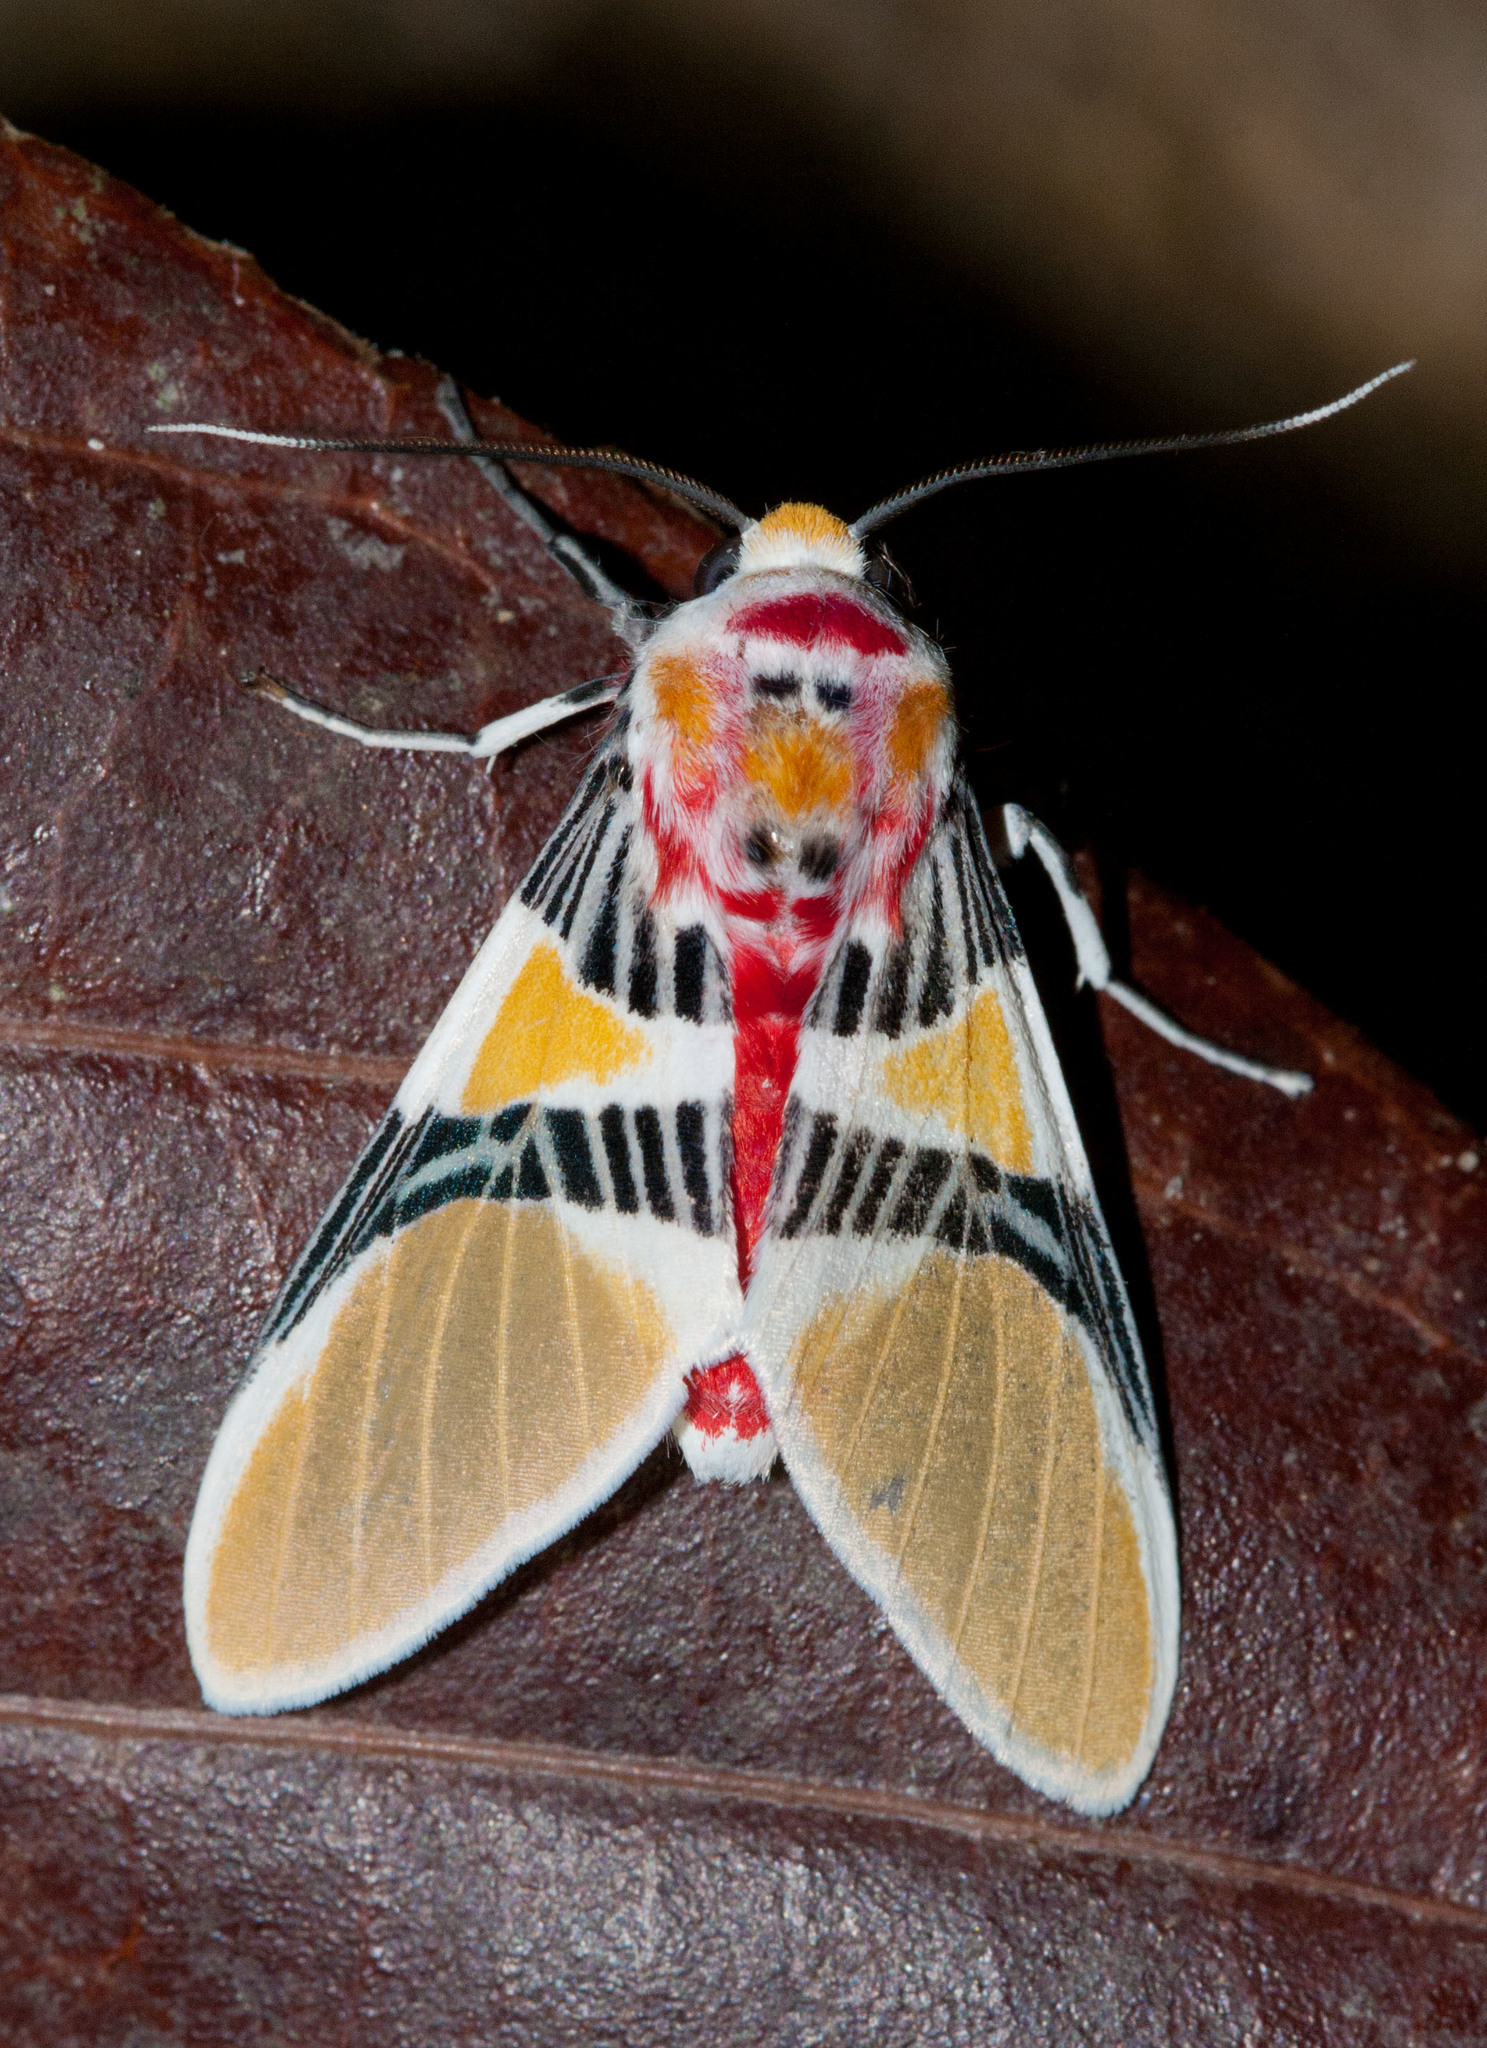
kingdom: Animalia
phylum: Arthropoda
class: Insecta
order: Lepidoptera
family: Erebidae
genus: Idalus
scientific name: Idalus herois
